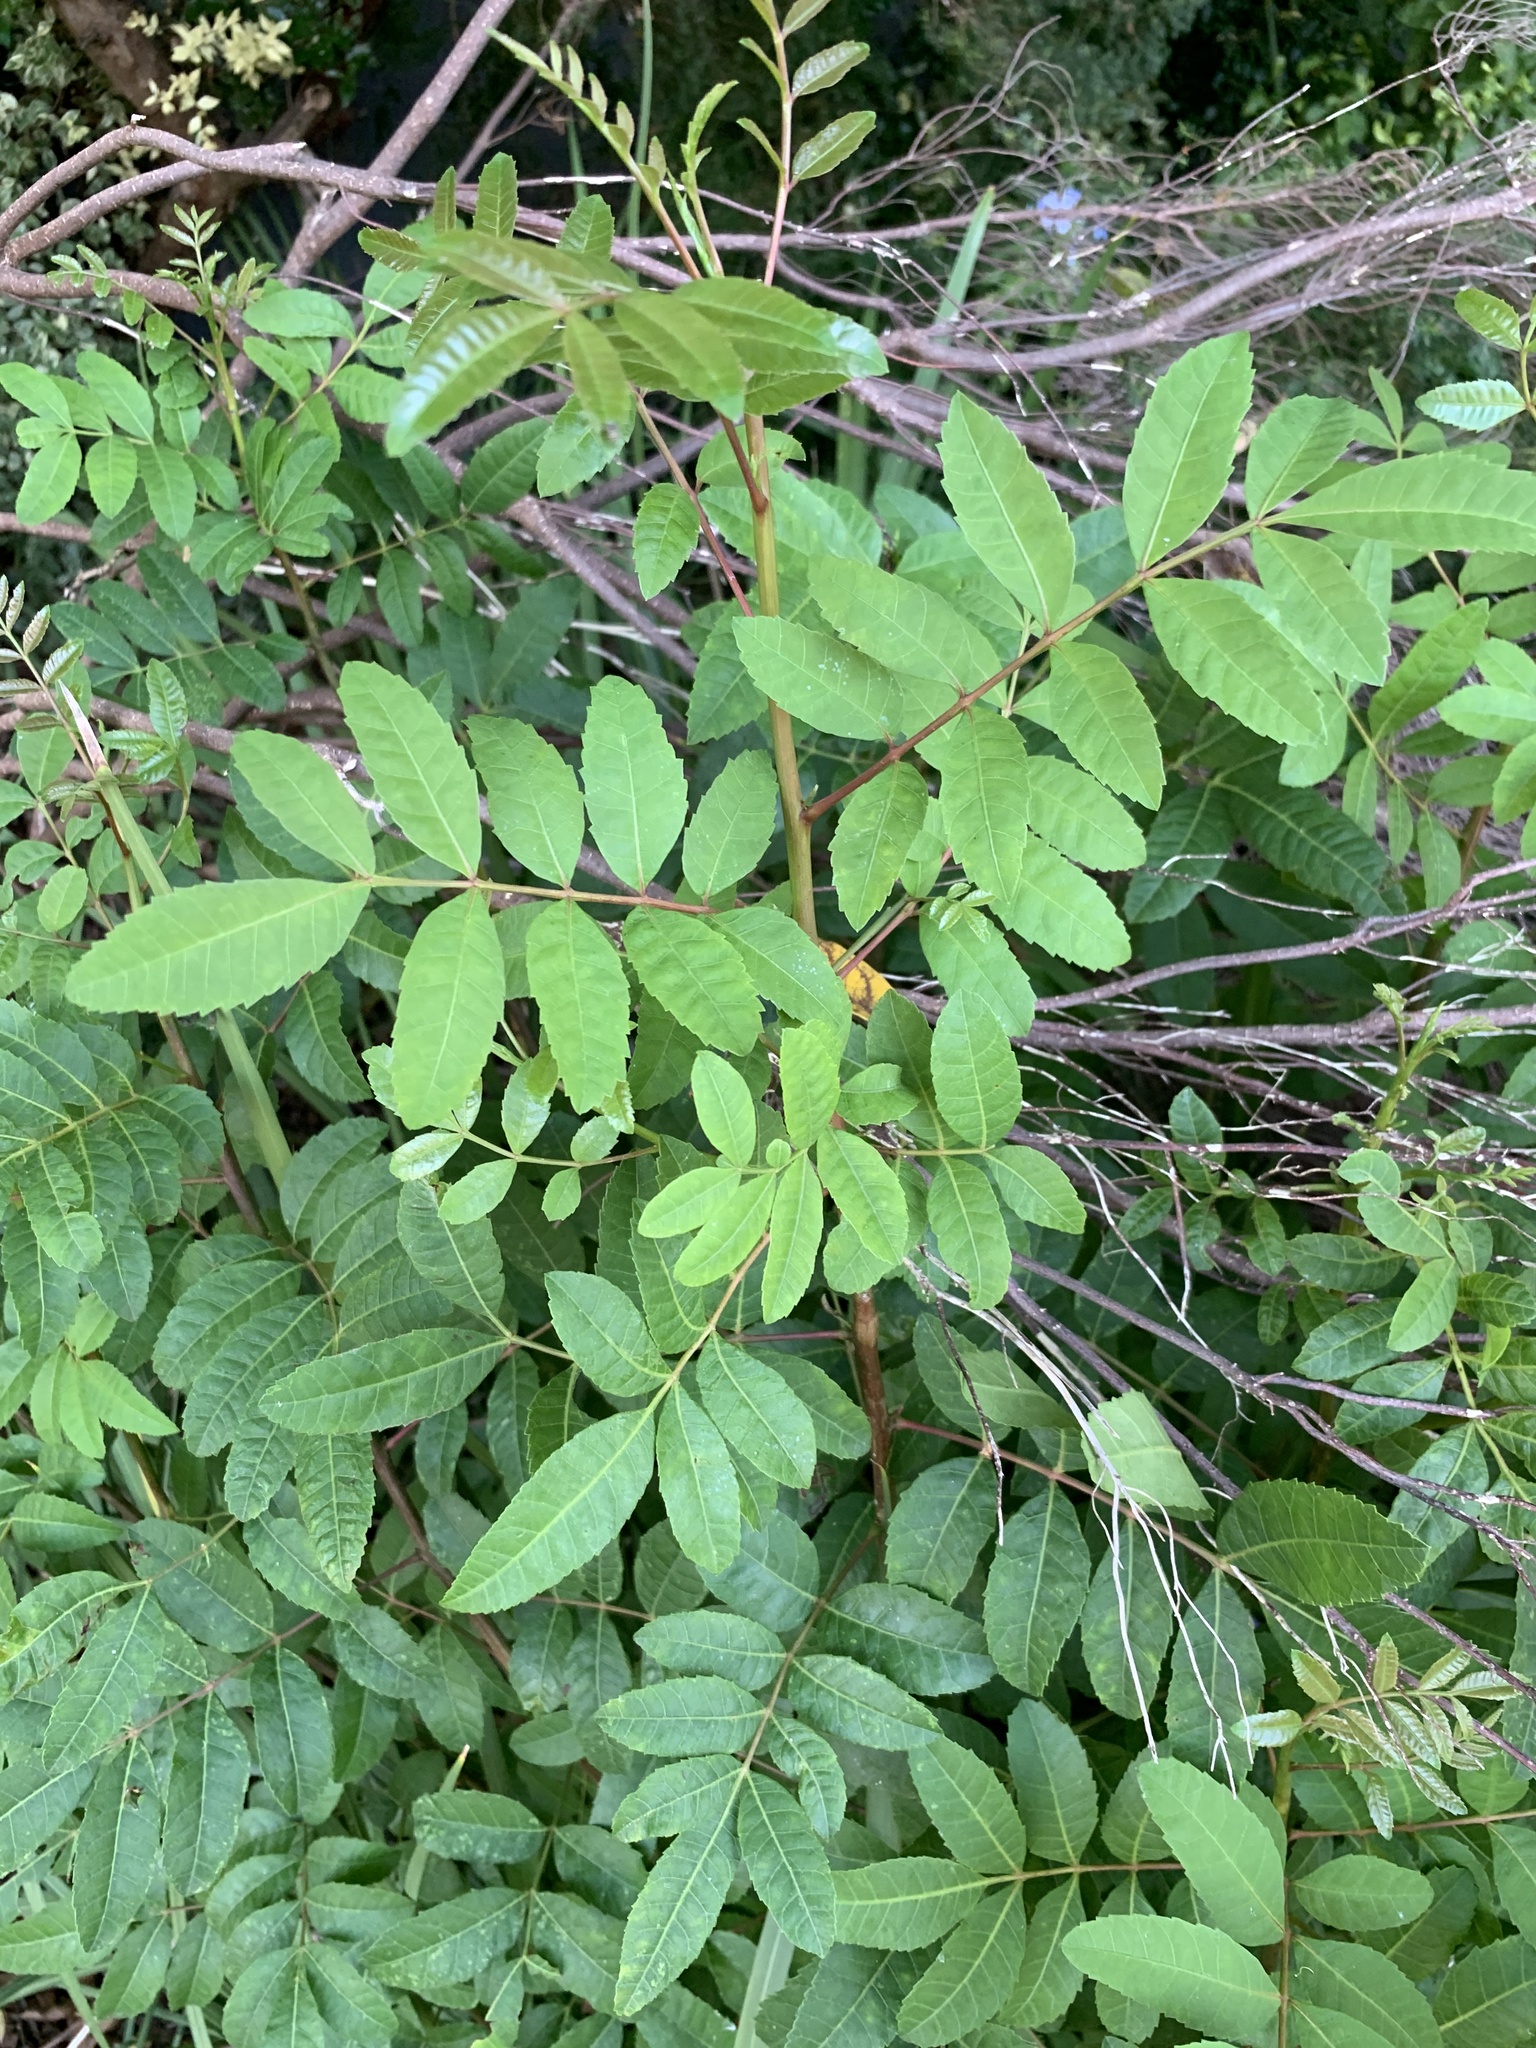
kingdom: Plantae
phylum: Tracheophyta
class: Magnoliopsida
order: Sapindales
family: Anacardiaceae
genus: Schinus
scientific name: Schinus terebinthifolia
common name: Brazilian peppertree
